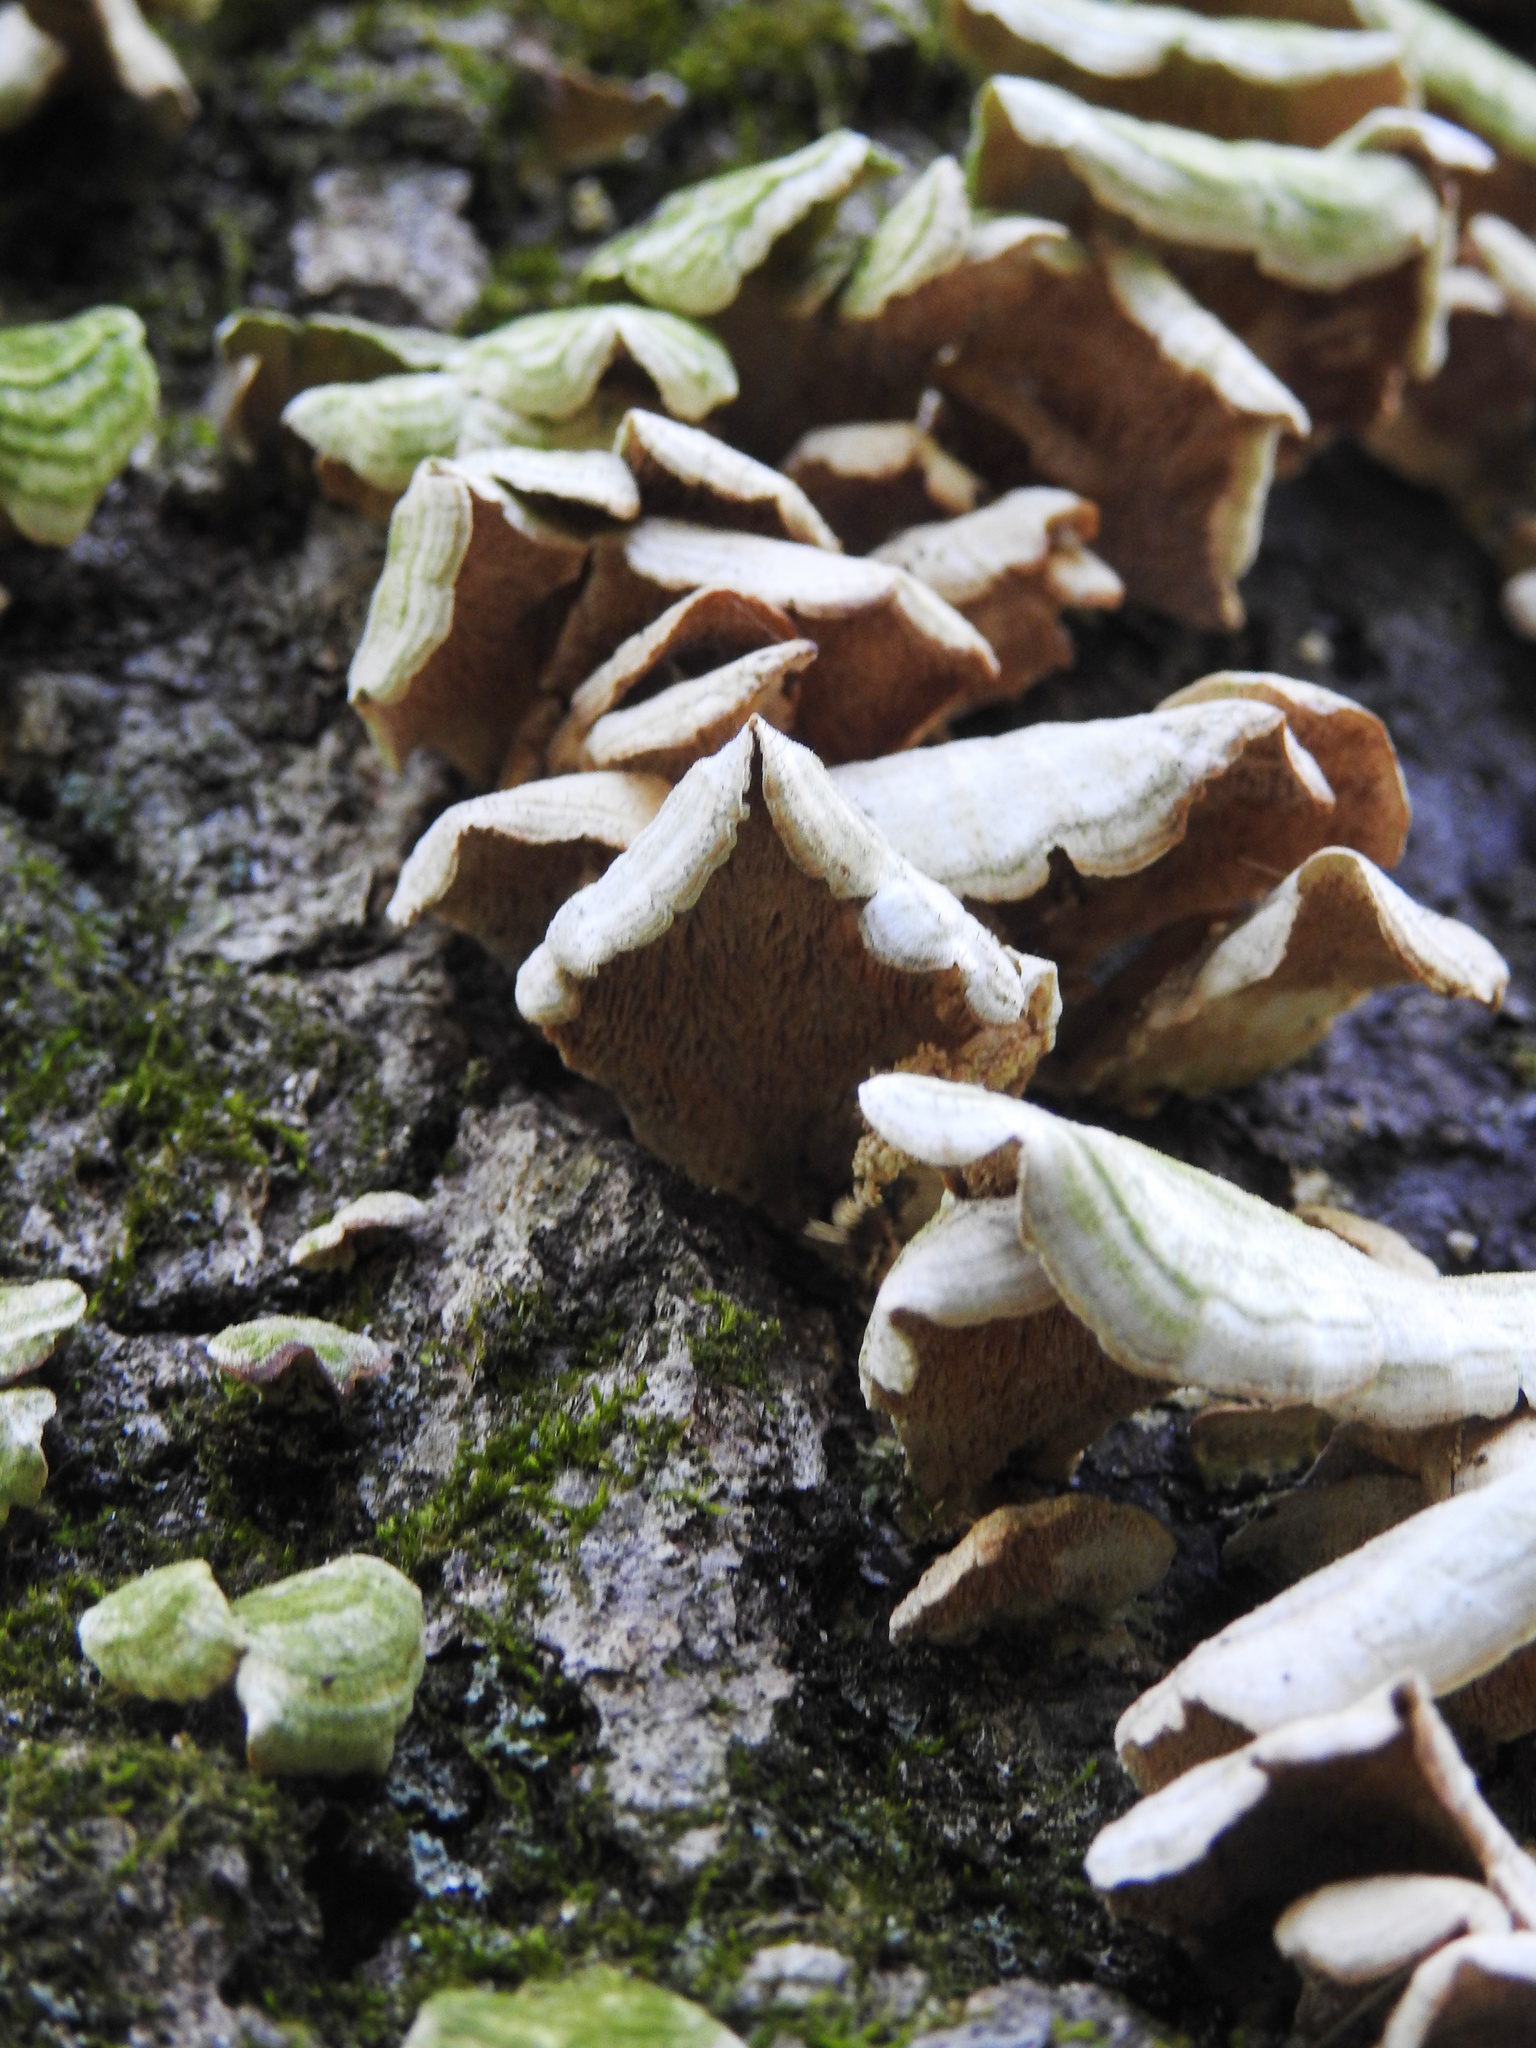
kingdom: Fungi
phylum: Basidiomycota
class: Agaricomycetes
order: Hymenochaetales
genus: Trichaptum
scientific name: Trichaptum biforme
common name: Violet-toothed polypore
